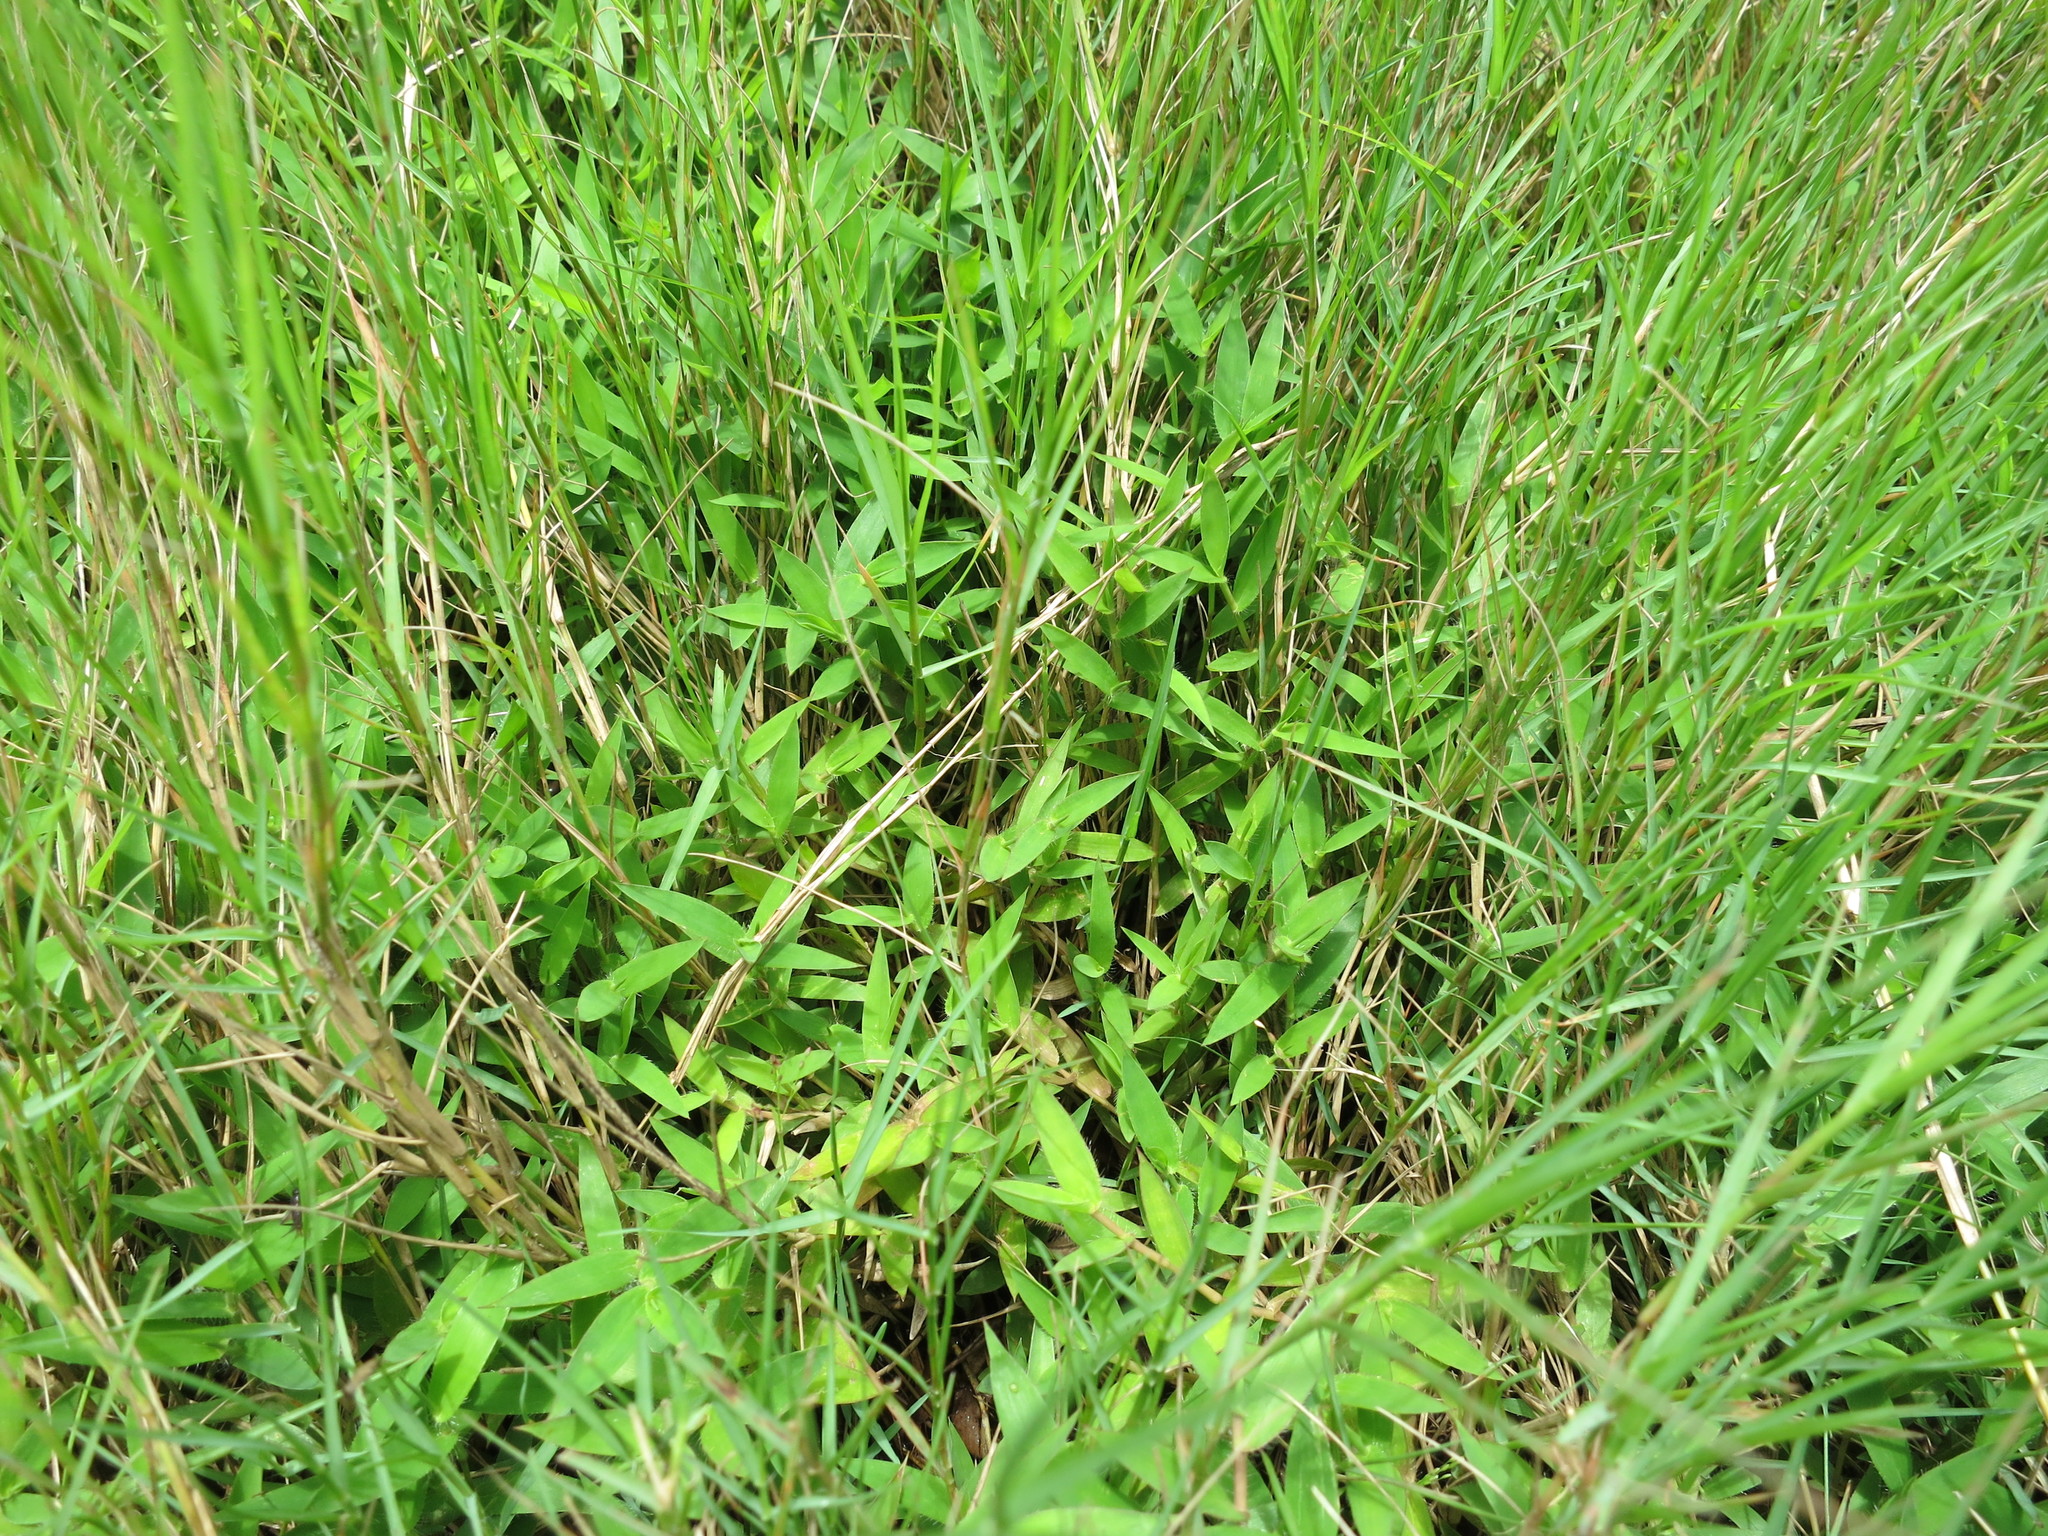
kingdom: Plantae
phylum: Tracheophyta
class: Liliopsida
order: Poales
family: Poaceae
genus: Urochloa
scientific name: Urochloa Brachiaria umbellata
